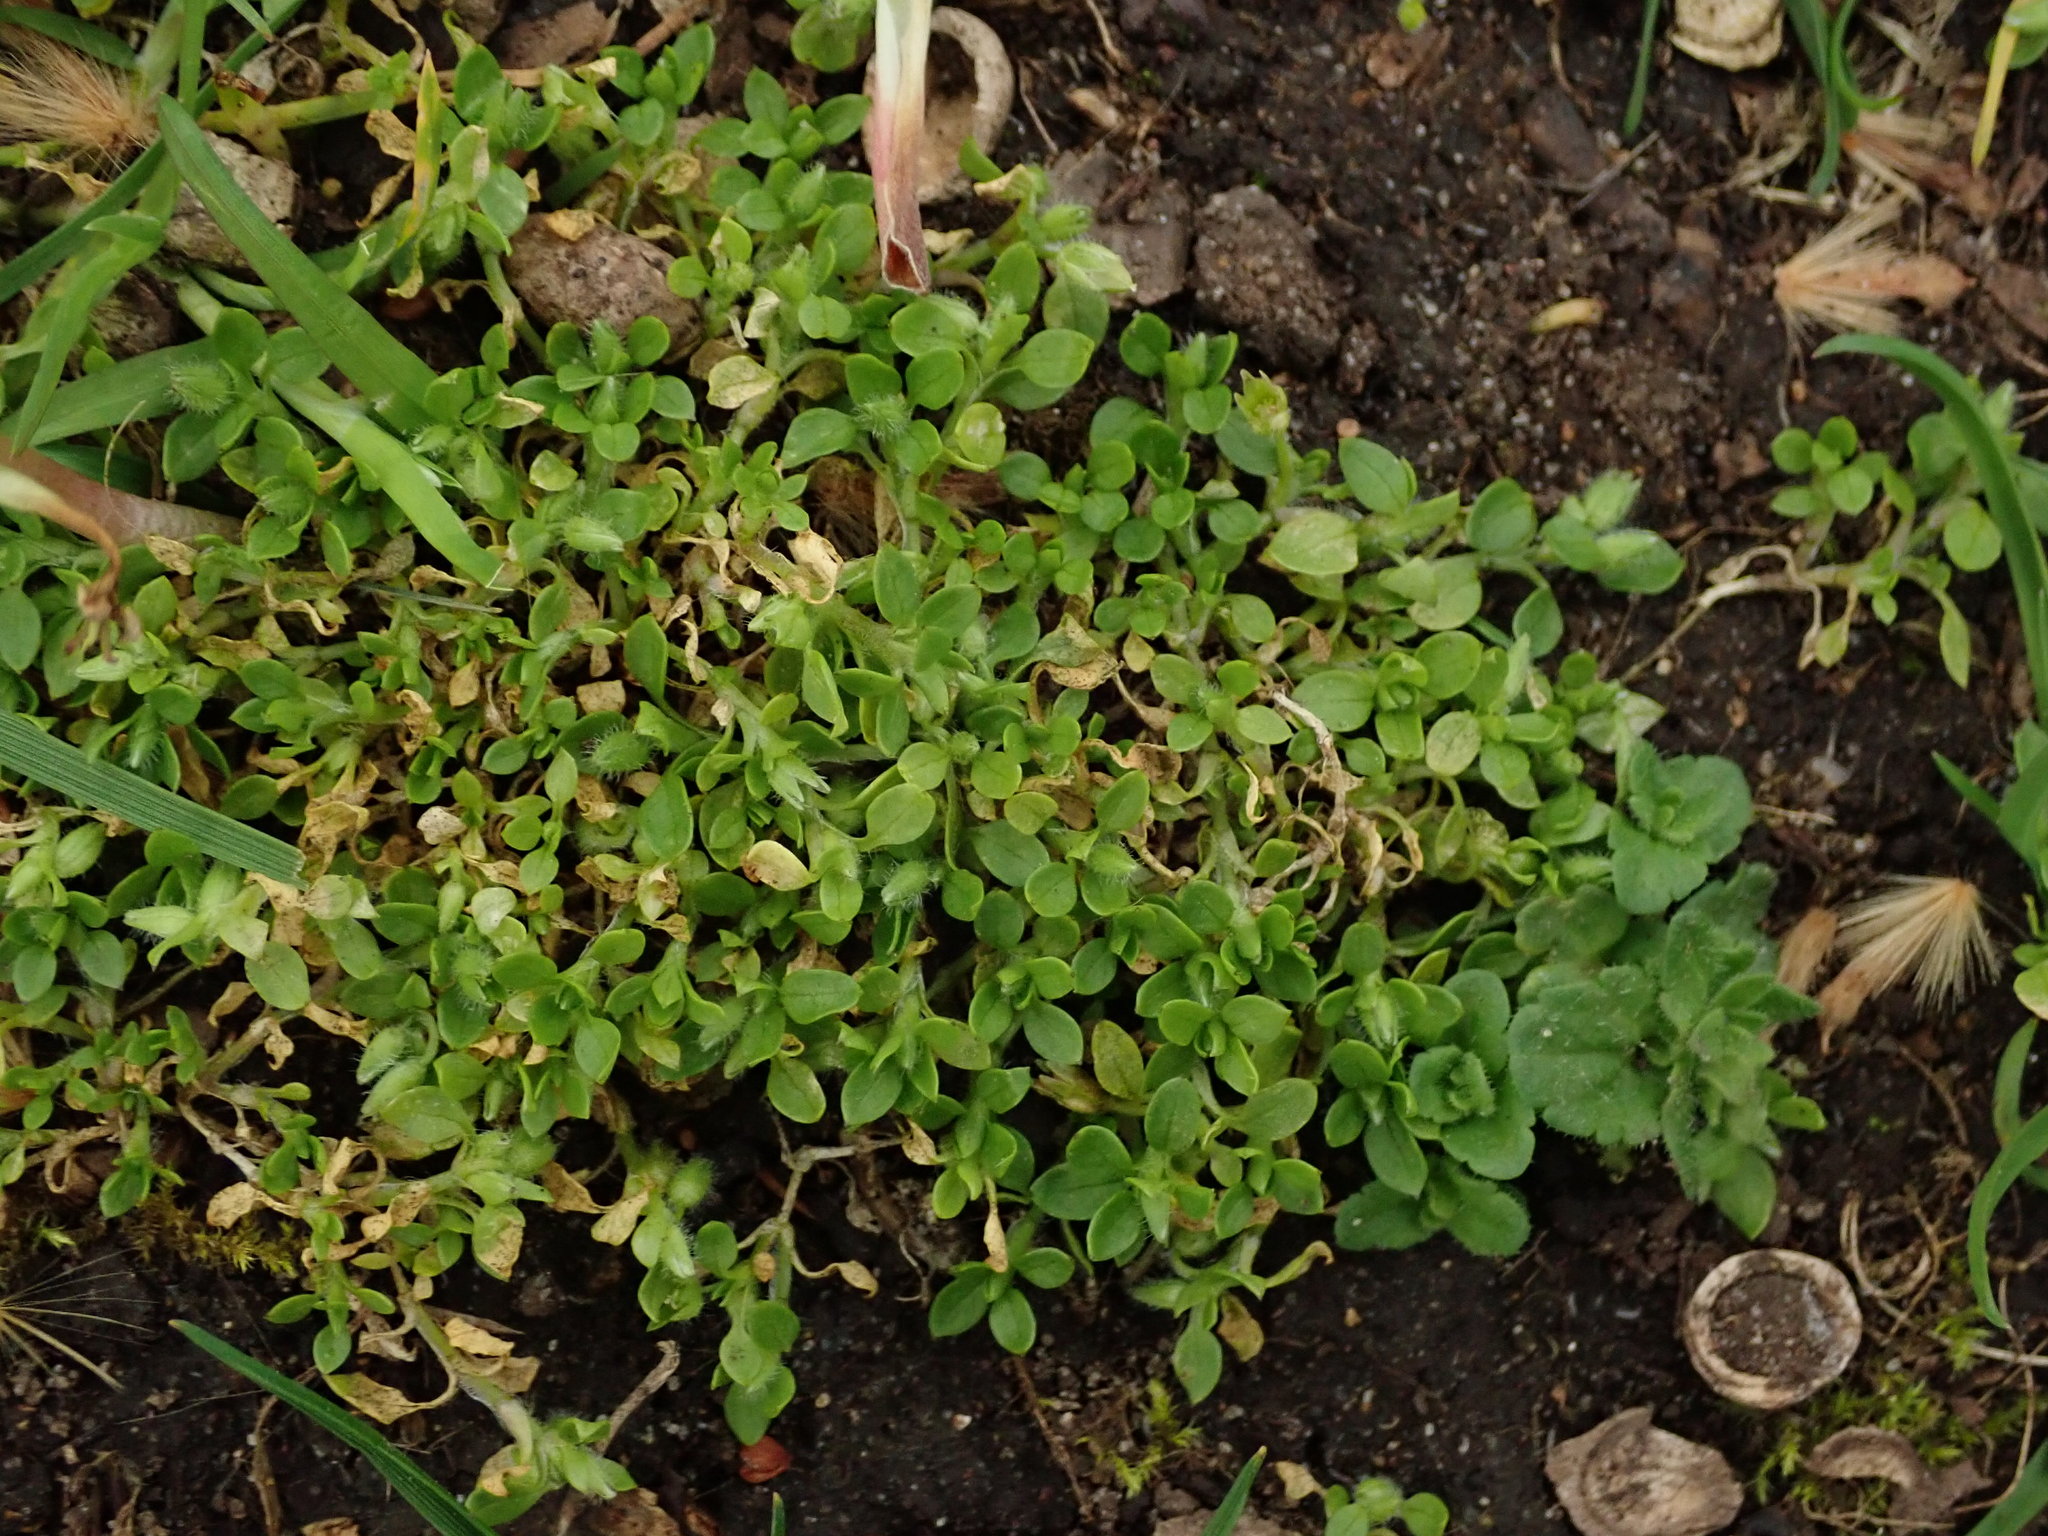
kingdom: Plantae
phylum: Tracheophyta
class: Magnoliopsida
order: Caryophyllales
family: Caryophyllaceae
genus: Stellaria
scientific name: Stellaria apetala
